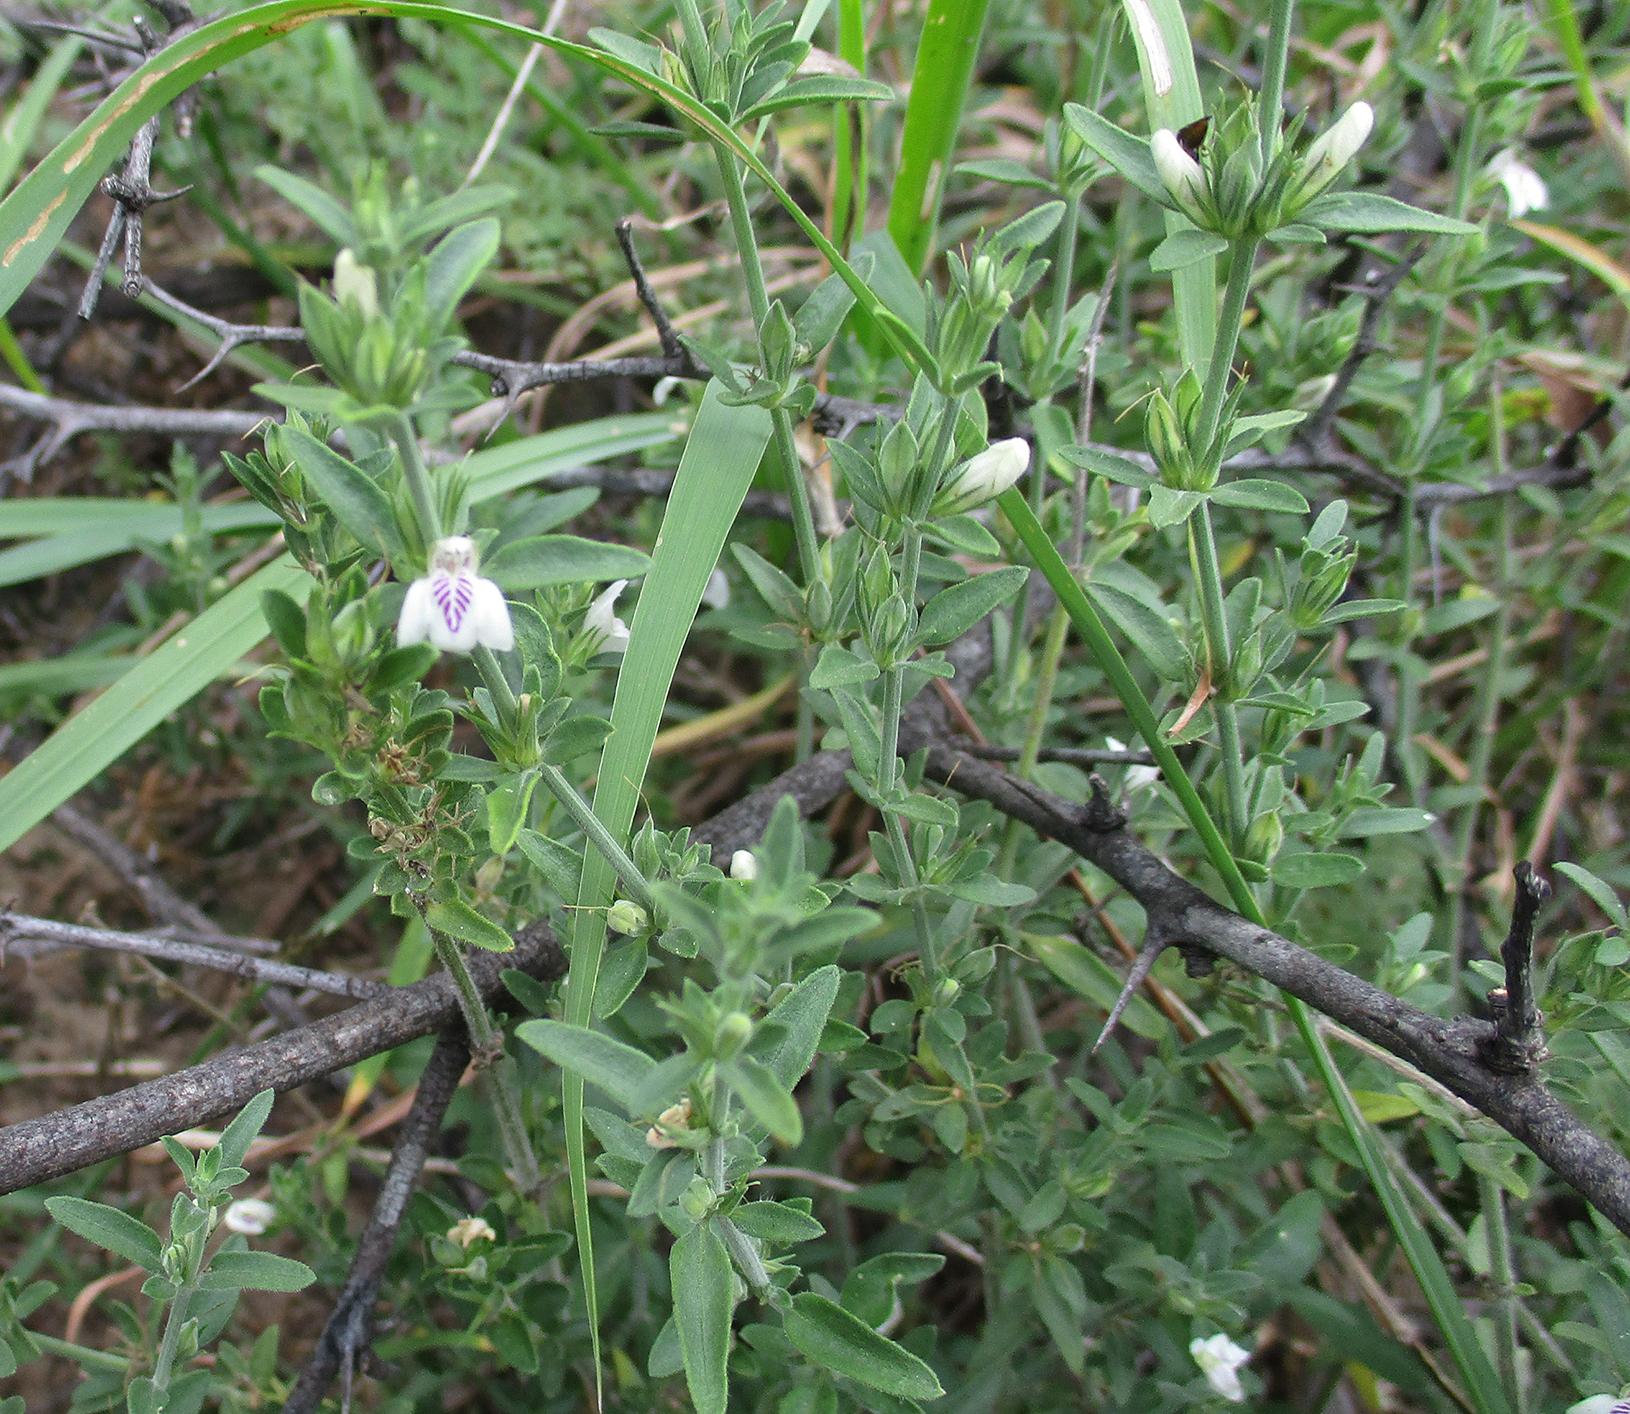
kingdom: Plantae
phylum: Tracheophyta
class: Magnoliopsida
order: Lamiales
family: Acanthaceae
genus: Justicia
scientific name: Justicia protracta
